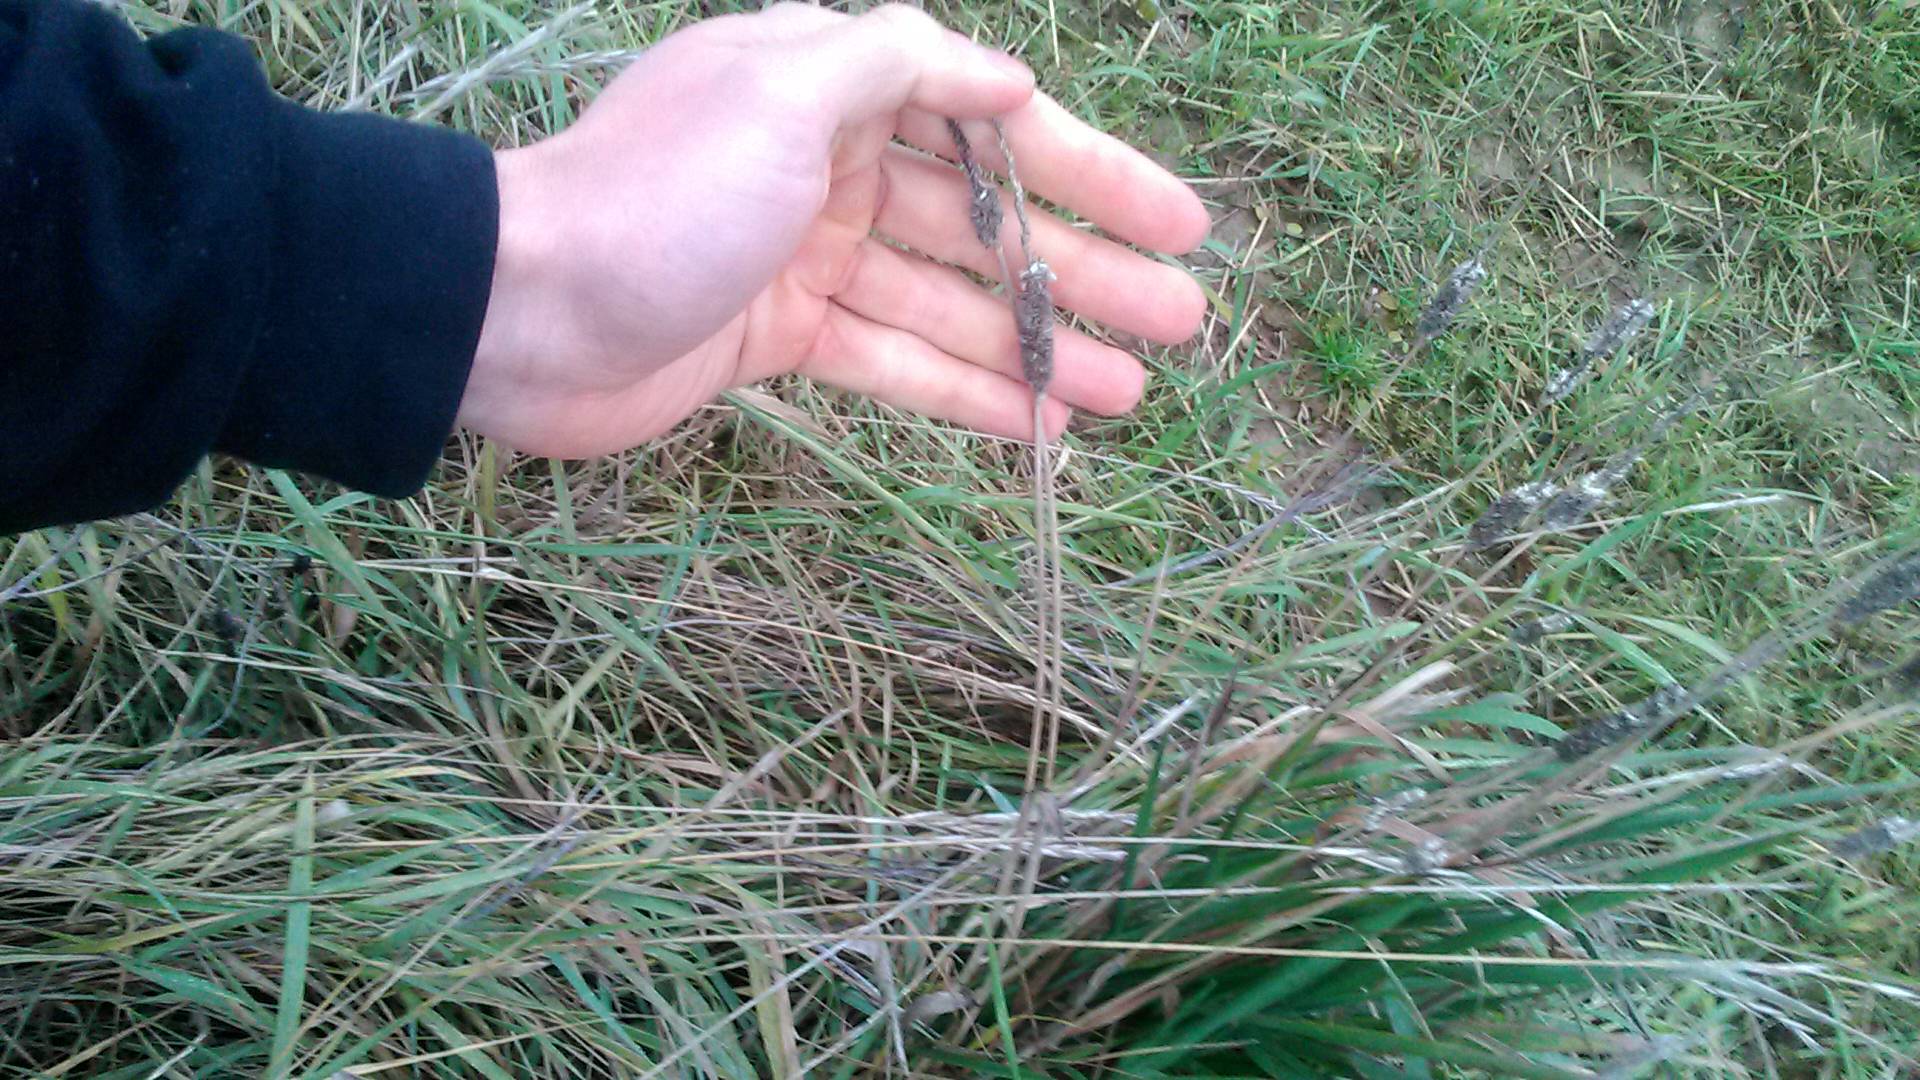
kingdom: Plantae
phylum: Tracheophyta
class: Liliopsida
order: Poales
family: Poaceae
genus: Phleum
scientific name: Phleum pratense
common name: Timothy grass
